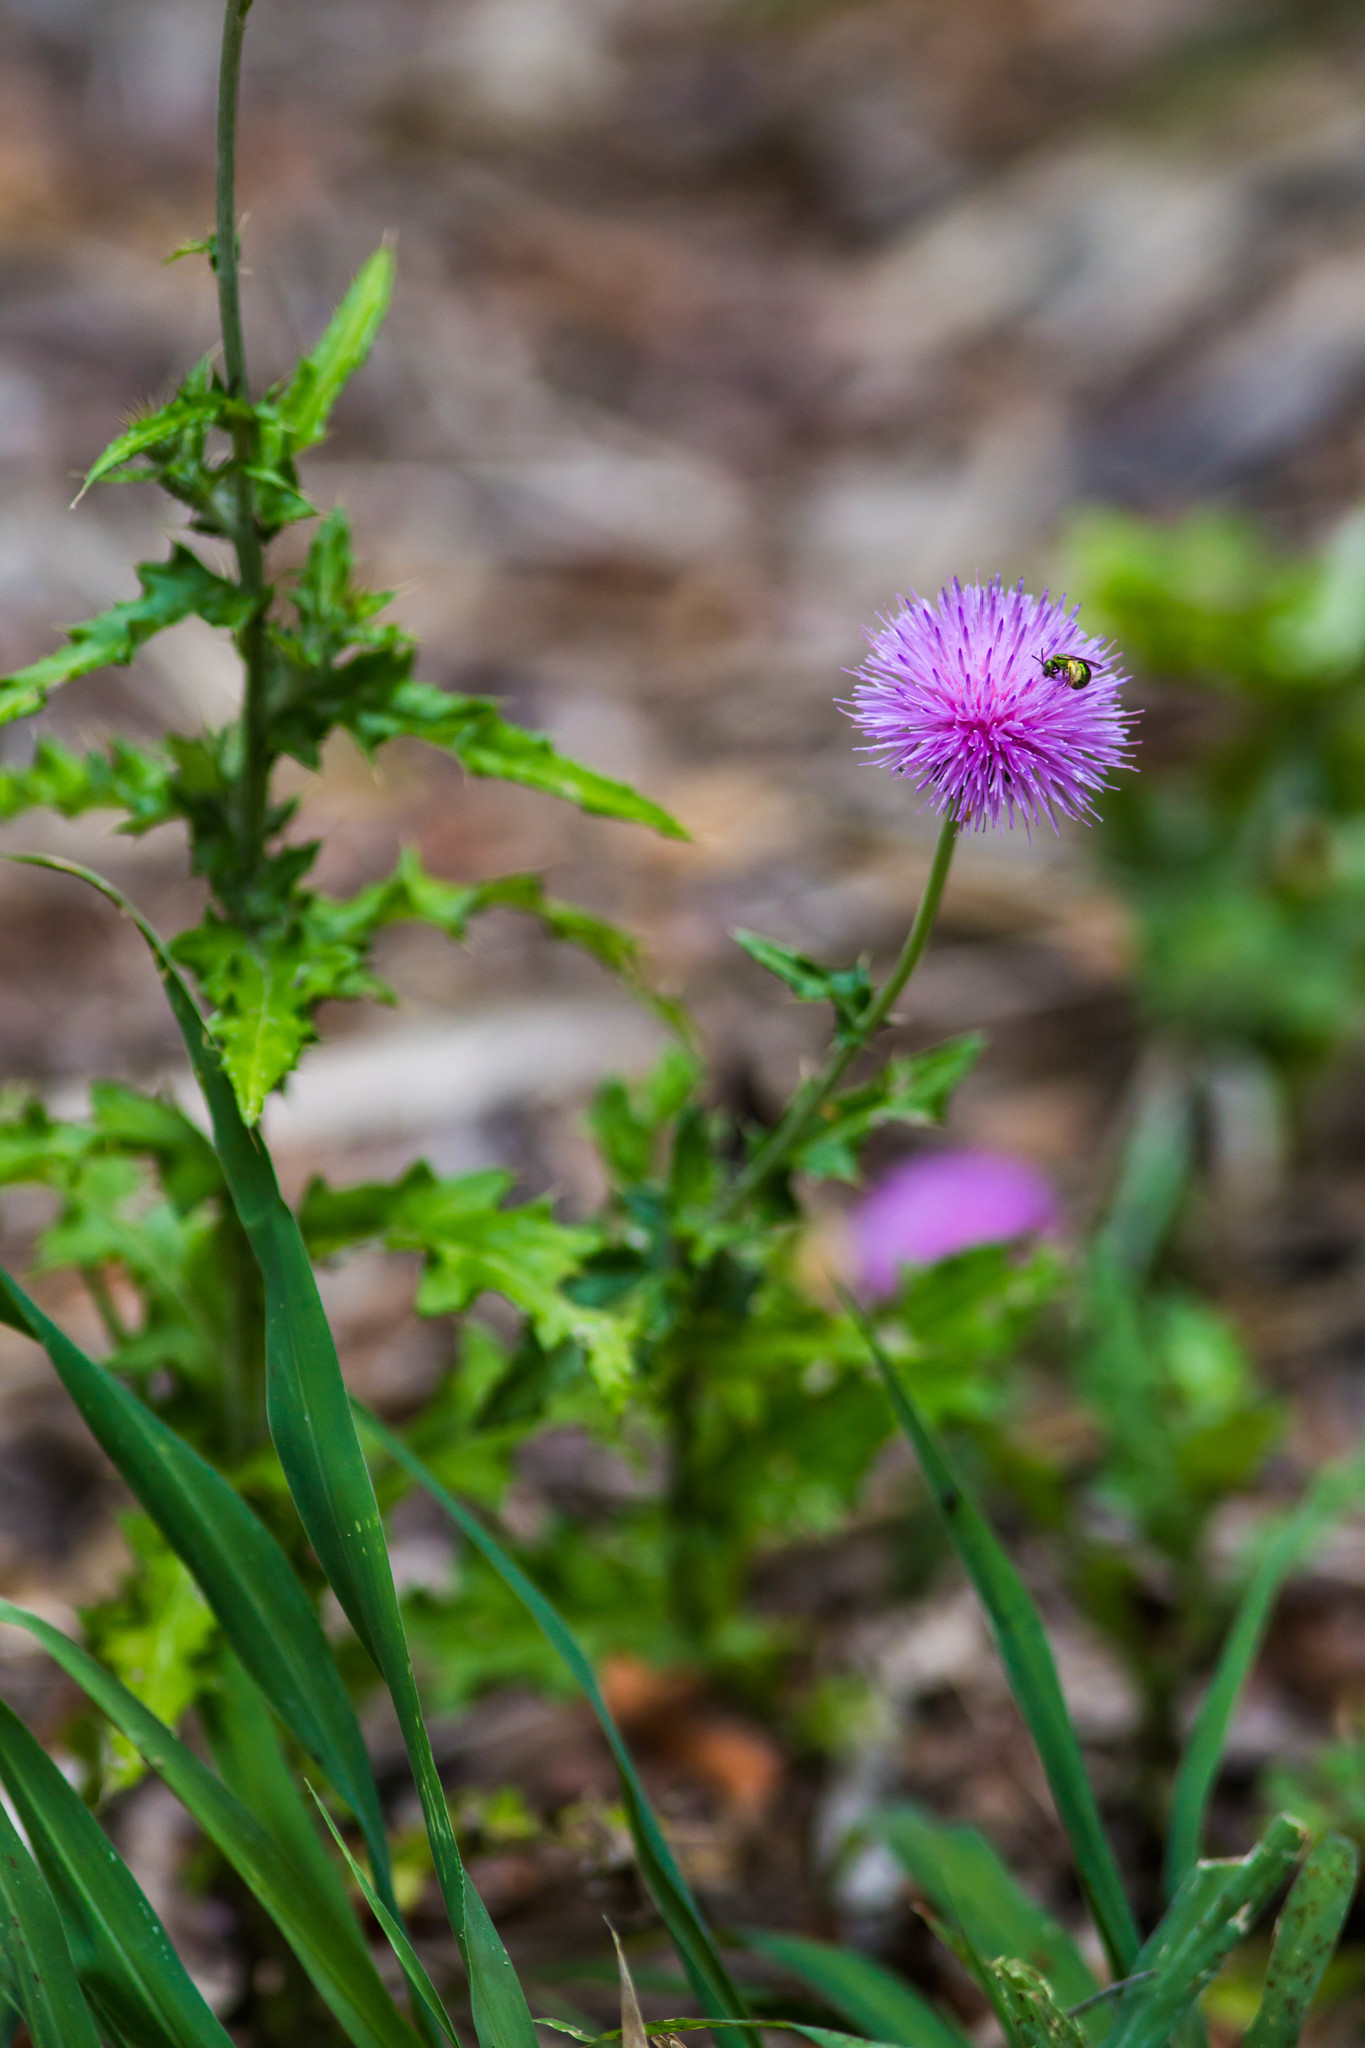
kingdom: Plantae
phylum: Tracheophyta
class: Magnoliopsida
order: Asterales
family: Asteraceae
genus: Cirsium
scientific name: Cirsium texanum
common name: Texas purple thistle
